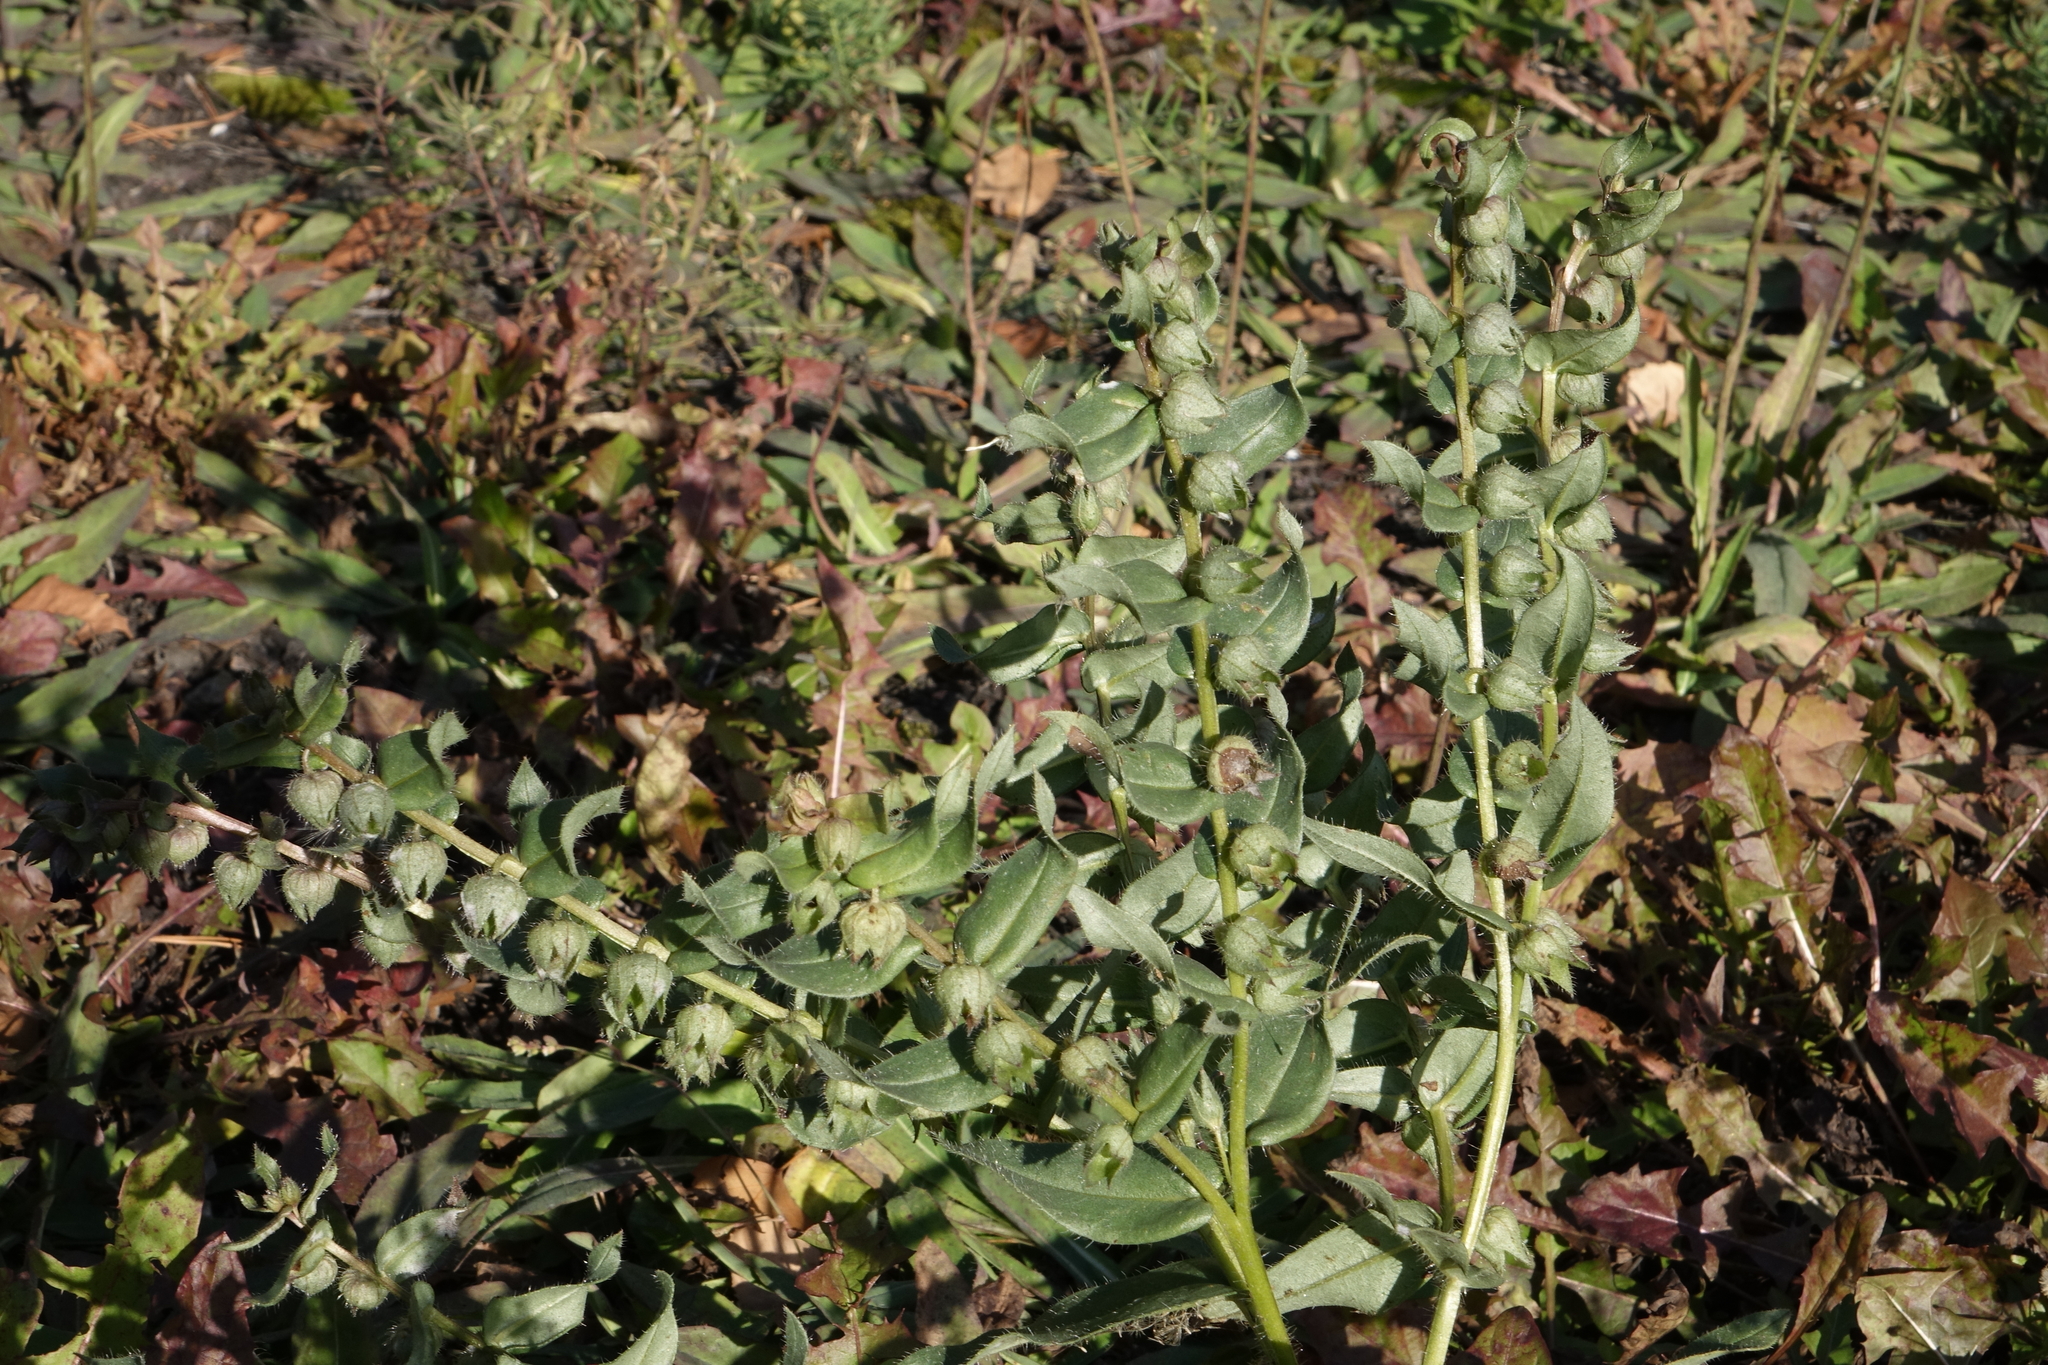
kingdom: Plantae
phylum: Tracheophyta
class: Magnoliopsida
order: Solanales
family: Solanaceae
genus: Hyoscyamus
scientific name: Hyoscyamus niger
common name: Henbane
